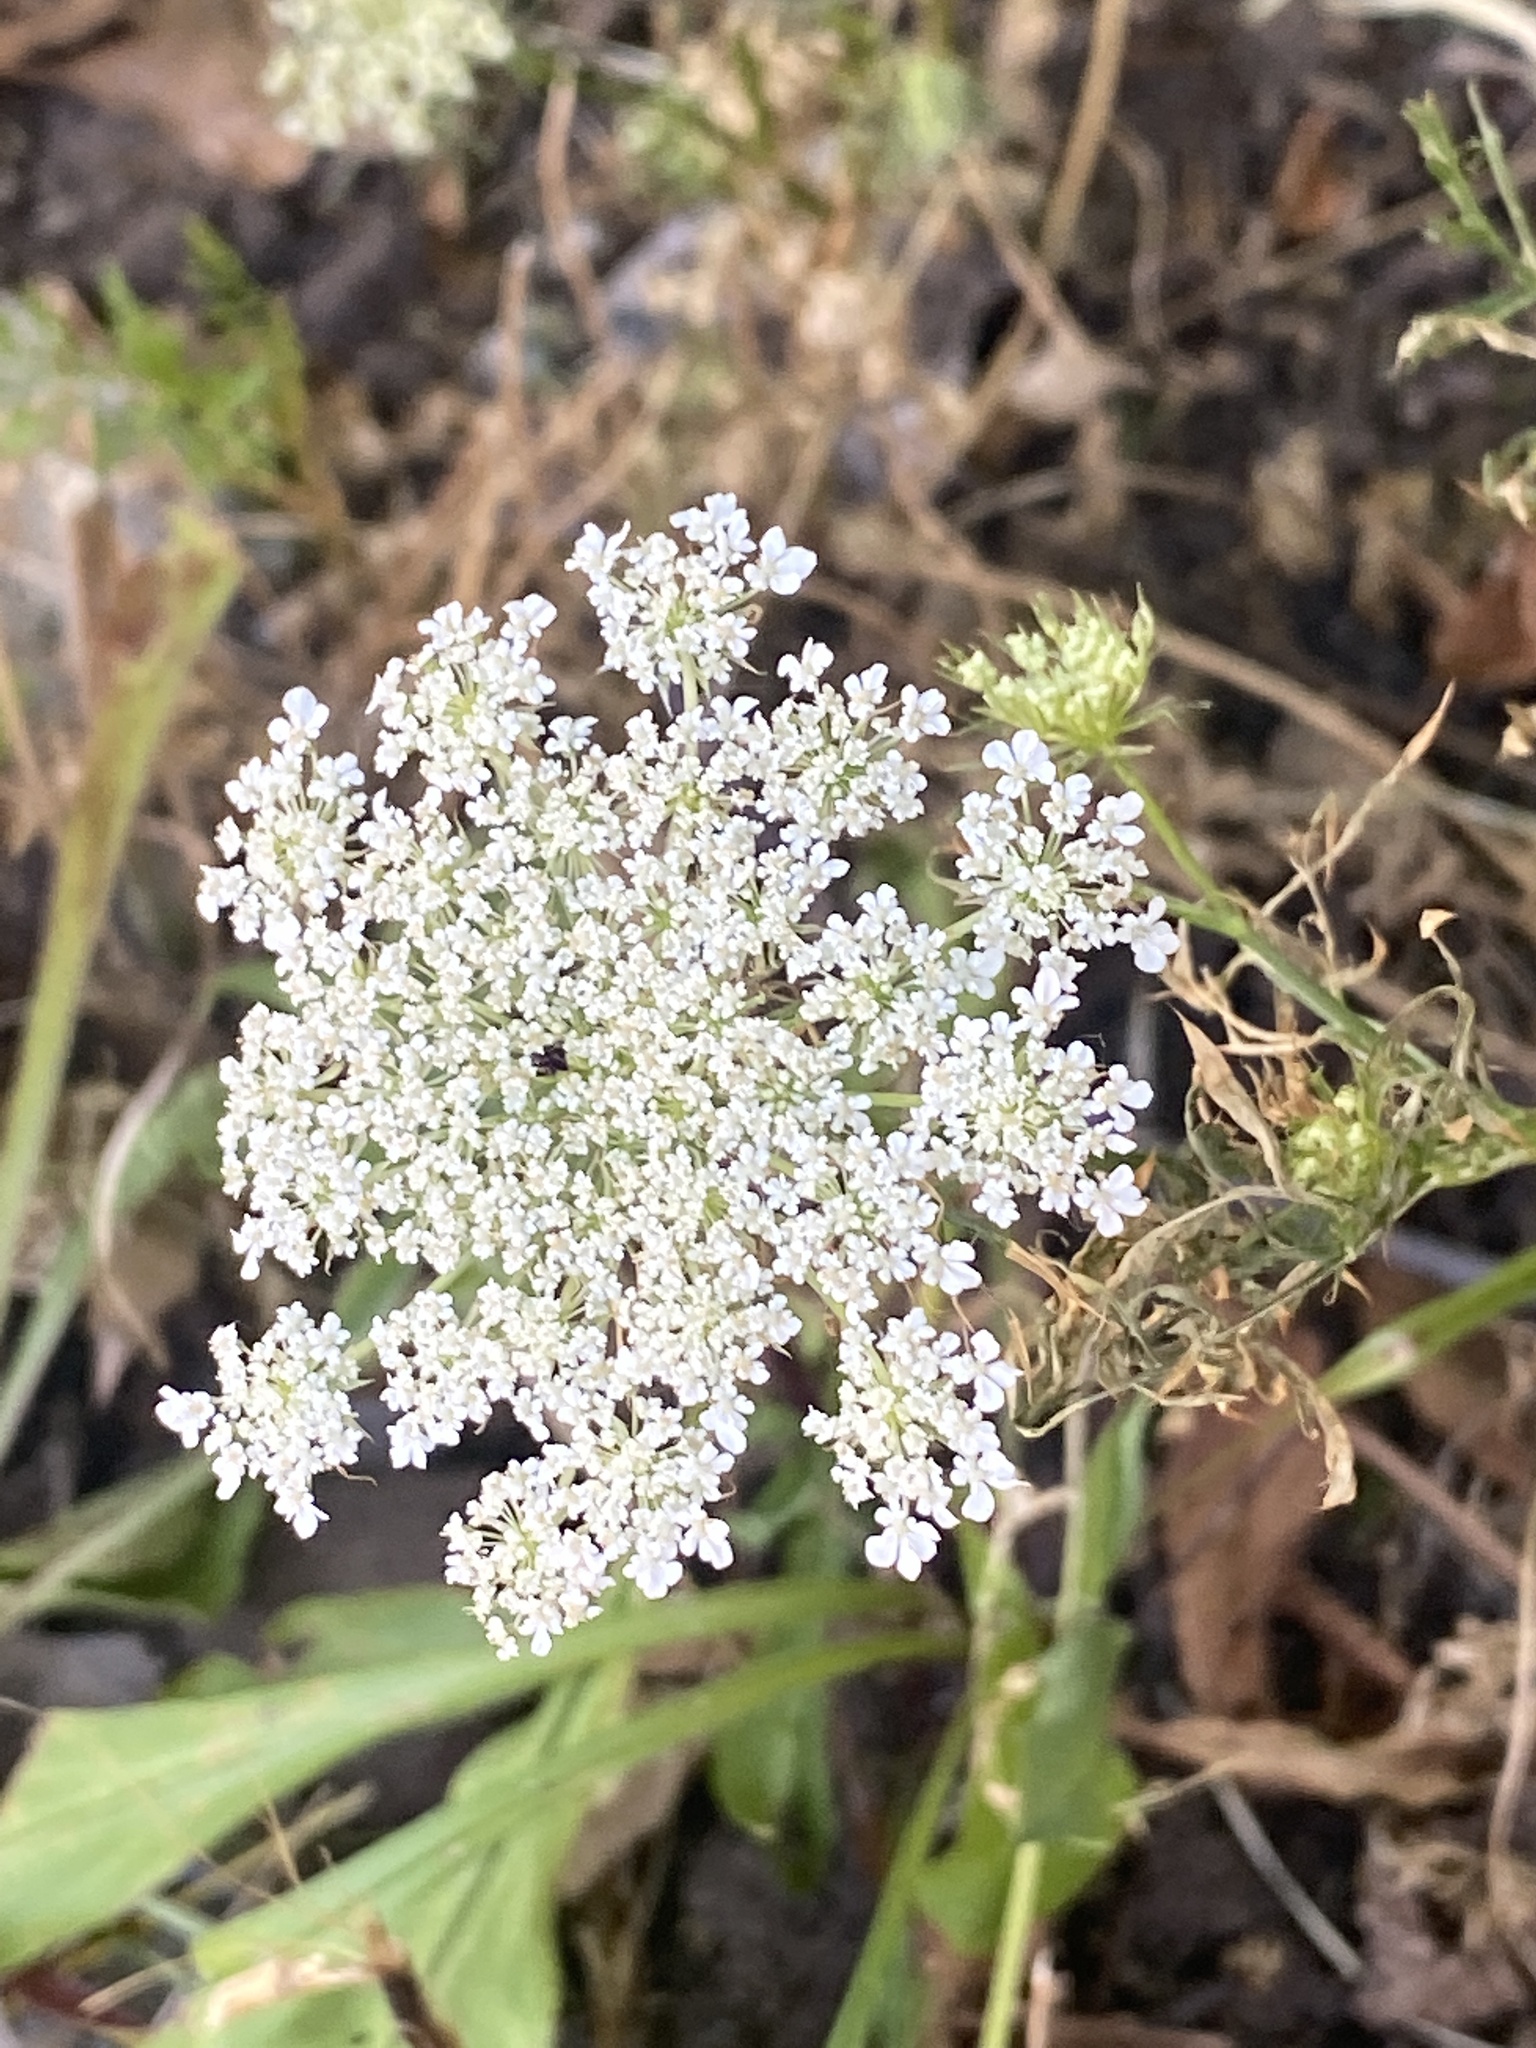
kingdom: Plantae
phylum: Tracheophyta
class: Magnoliopsida
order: Apiales
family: Apiaceae
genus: Daucus
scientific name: Daucus carota
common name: Wild carrot
